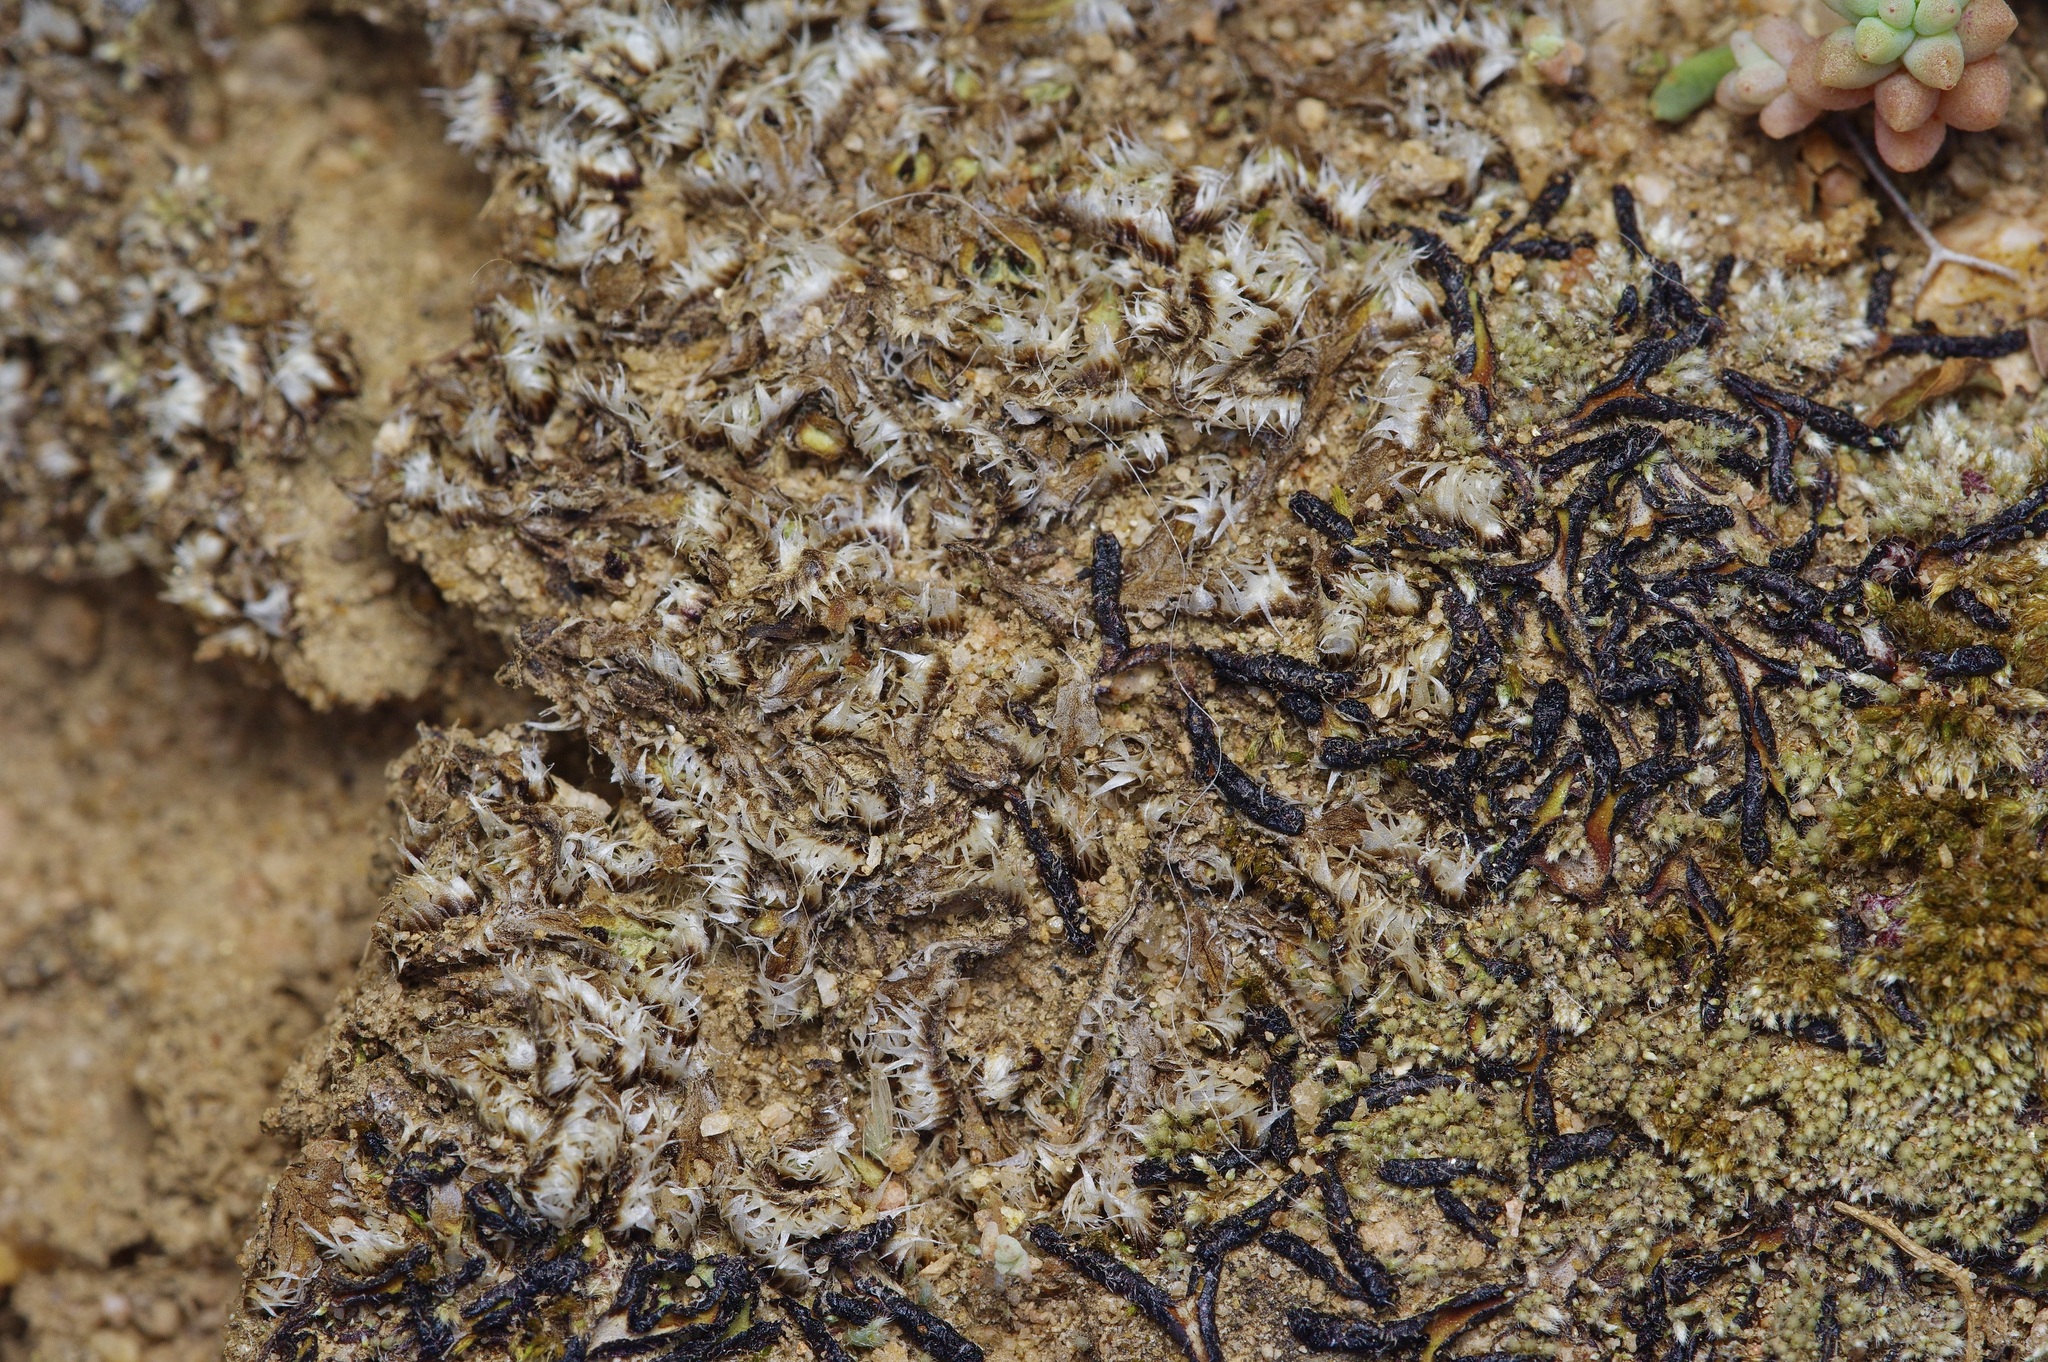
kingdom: Plantae
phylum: Marchantiophyta
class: Marchantiopsida
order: Marchantiales
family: Ricciaceae
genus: Oxymitra
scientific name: Oxymitra incrassata
